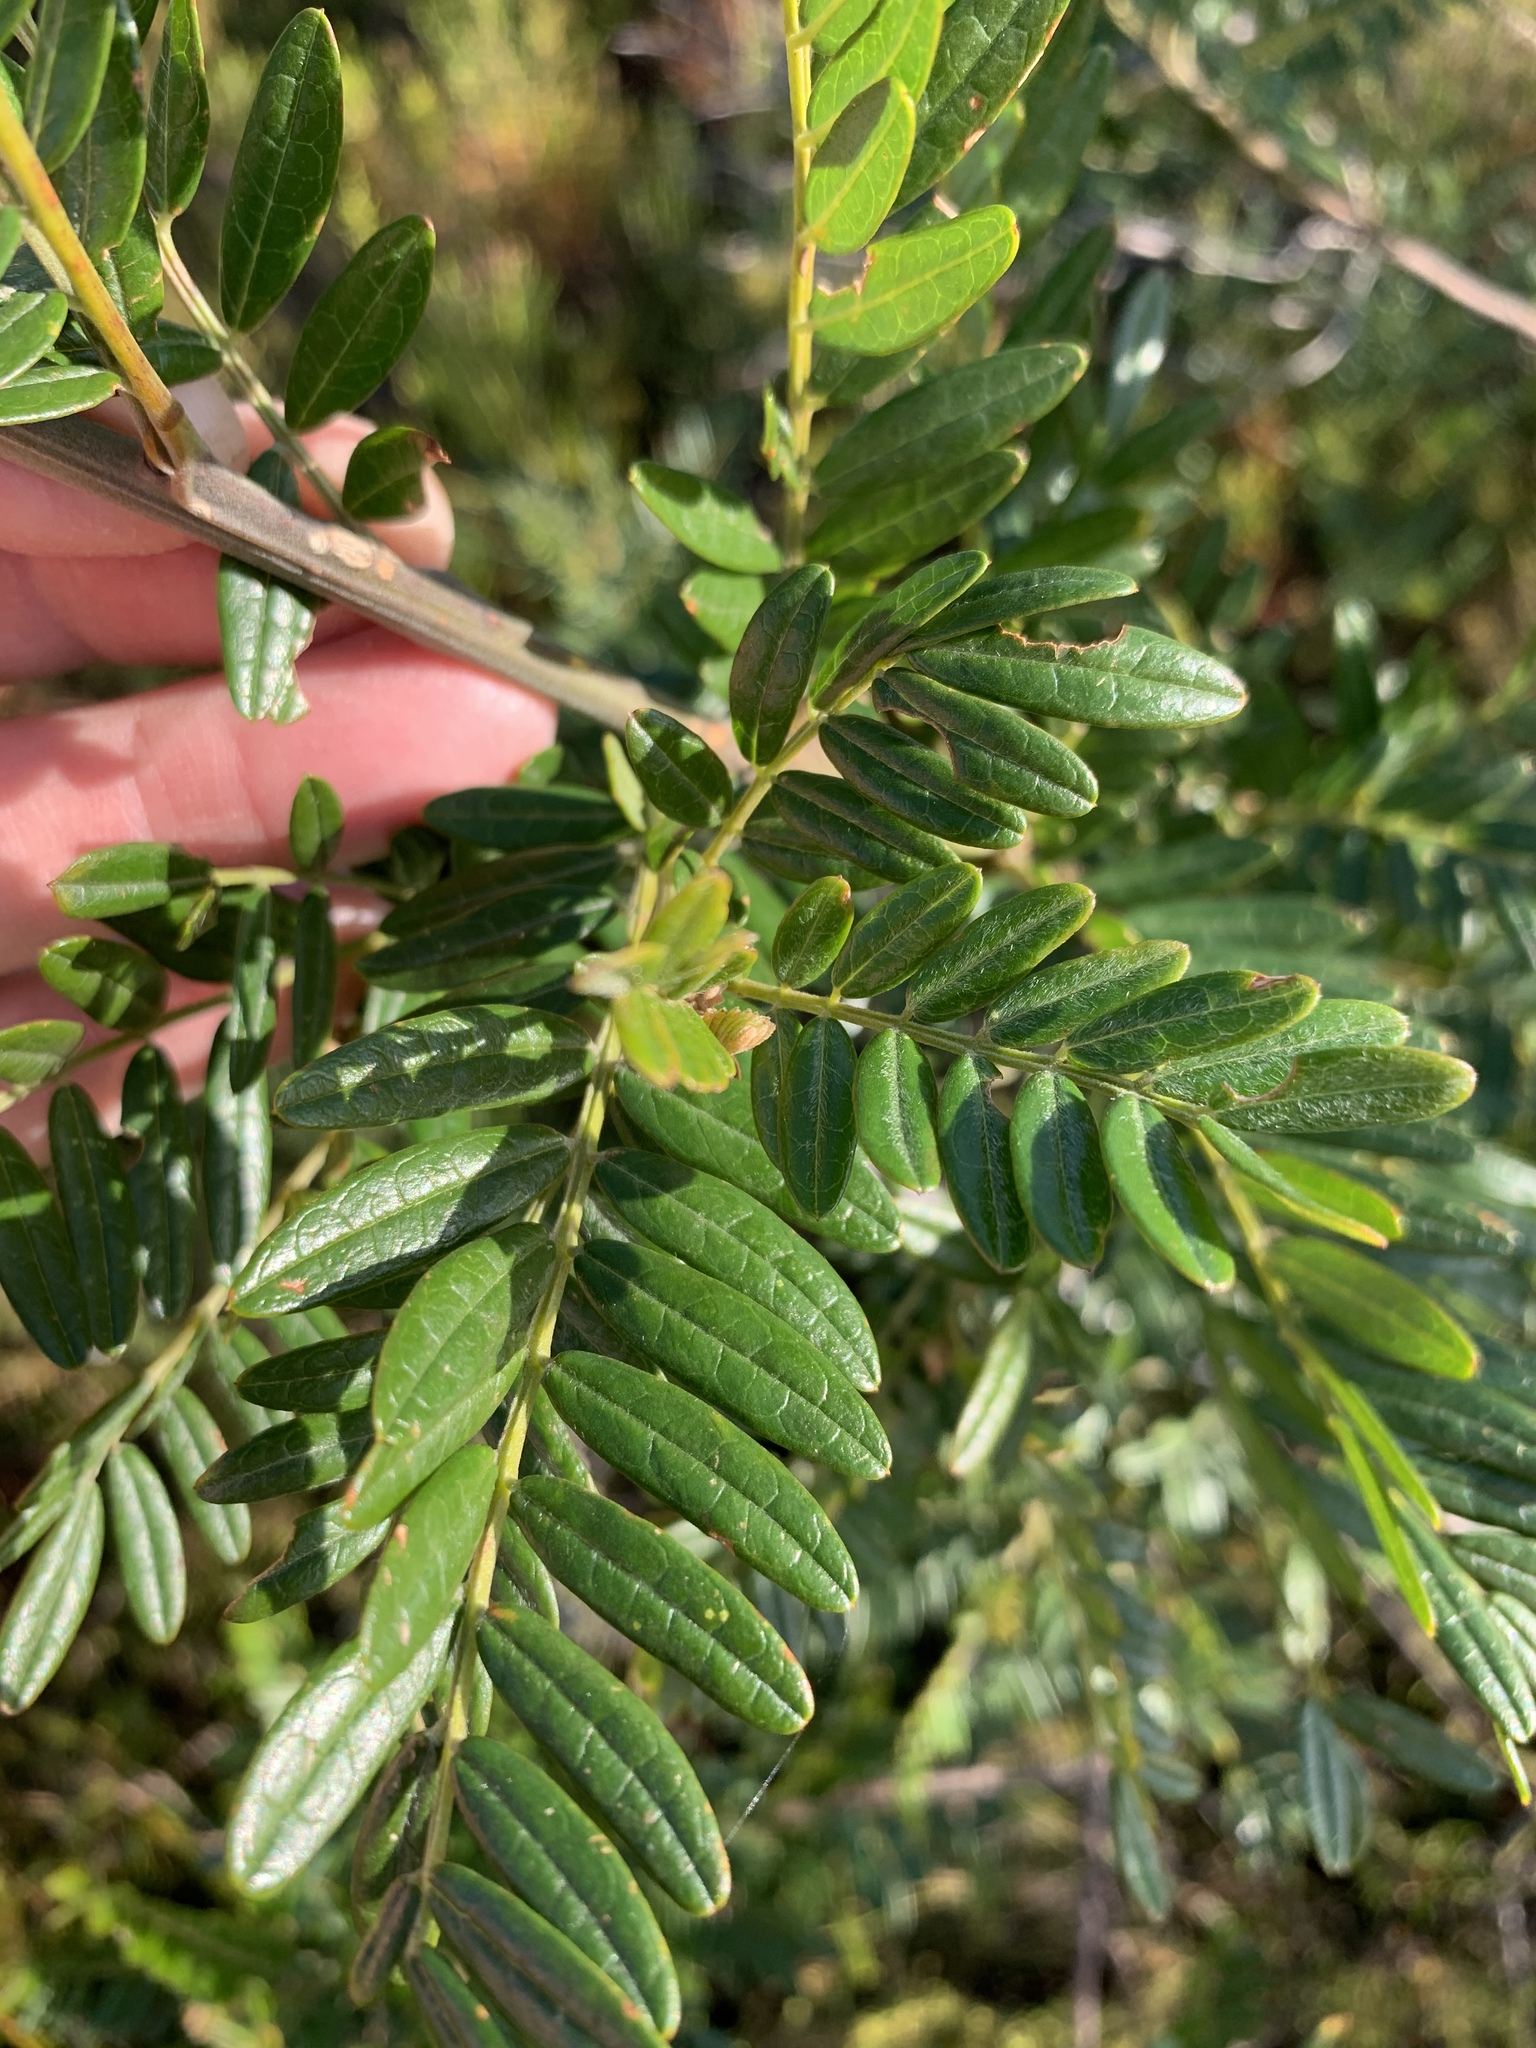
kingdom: Plantae
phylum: Tracheophyta
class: Magnoliopsida
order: Fabales
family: Fabaceae
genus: Virgilia
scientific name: Virgilia oroboides
